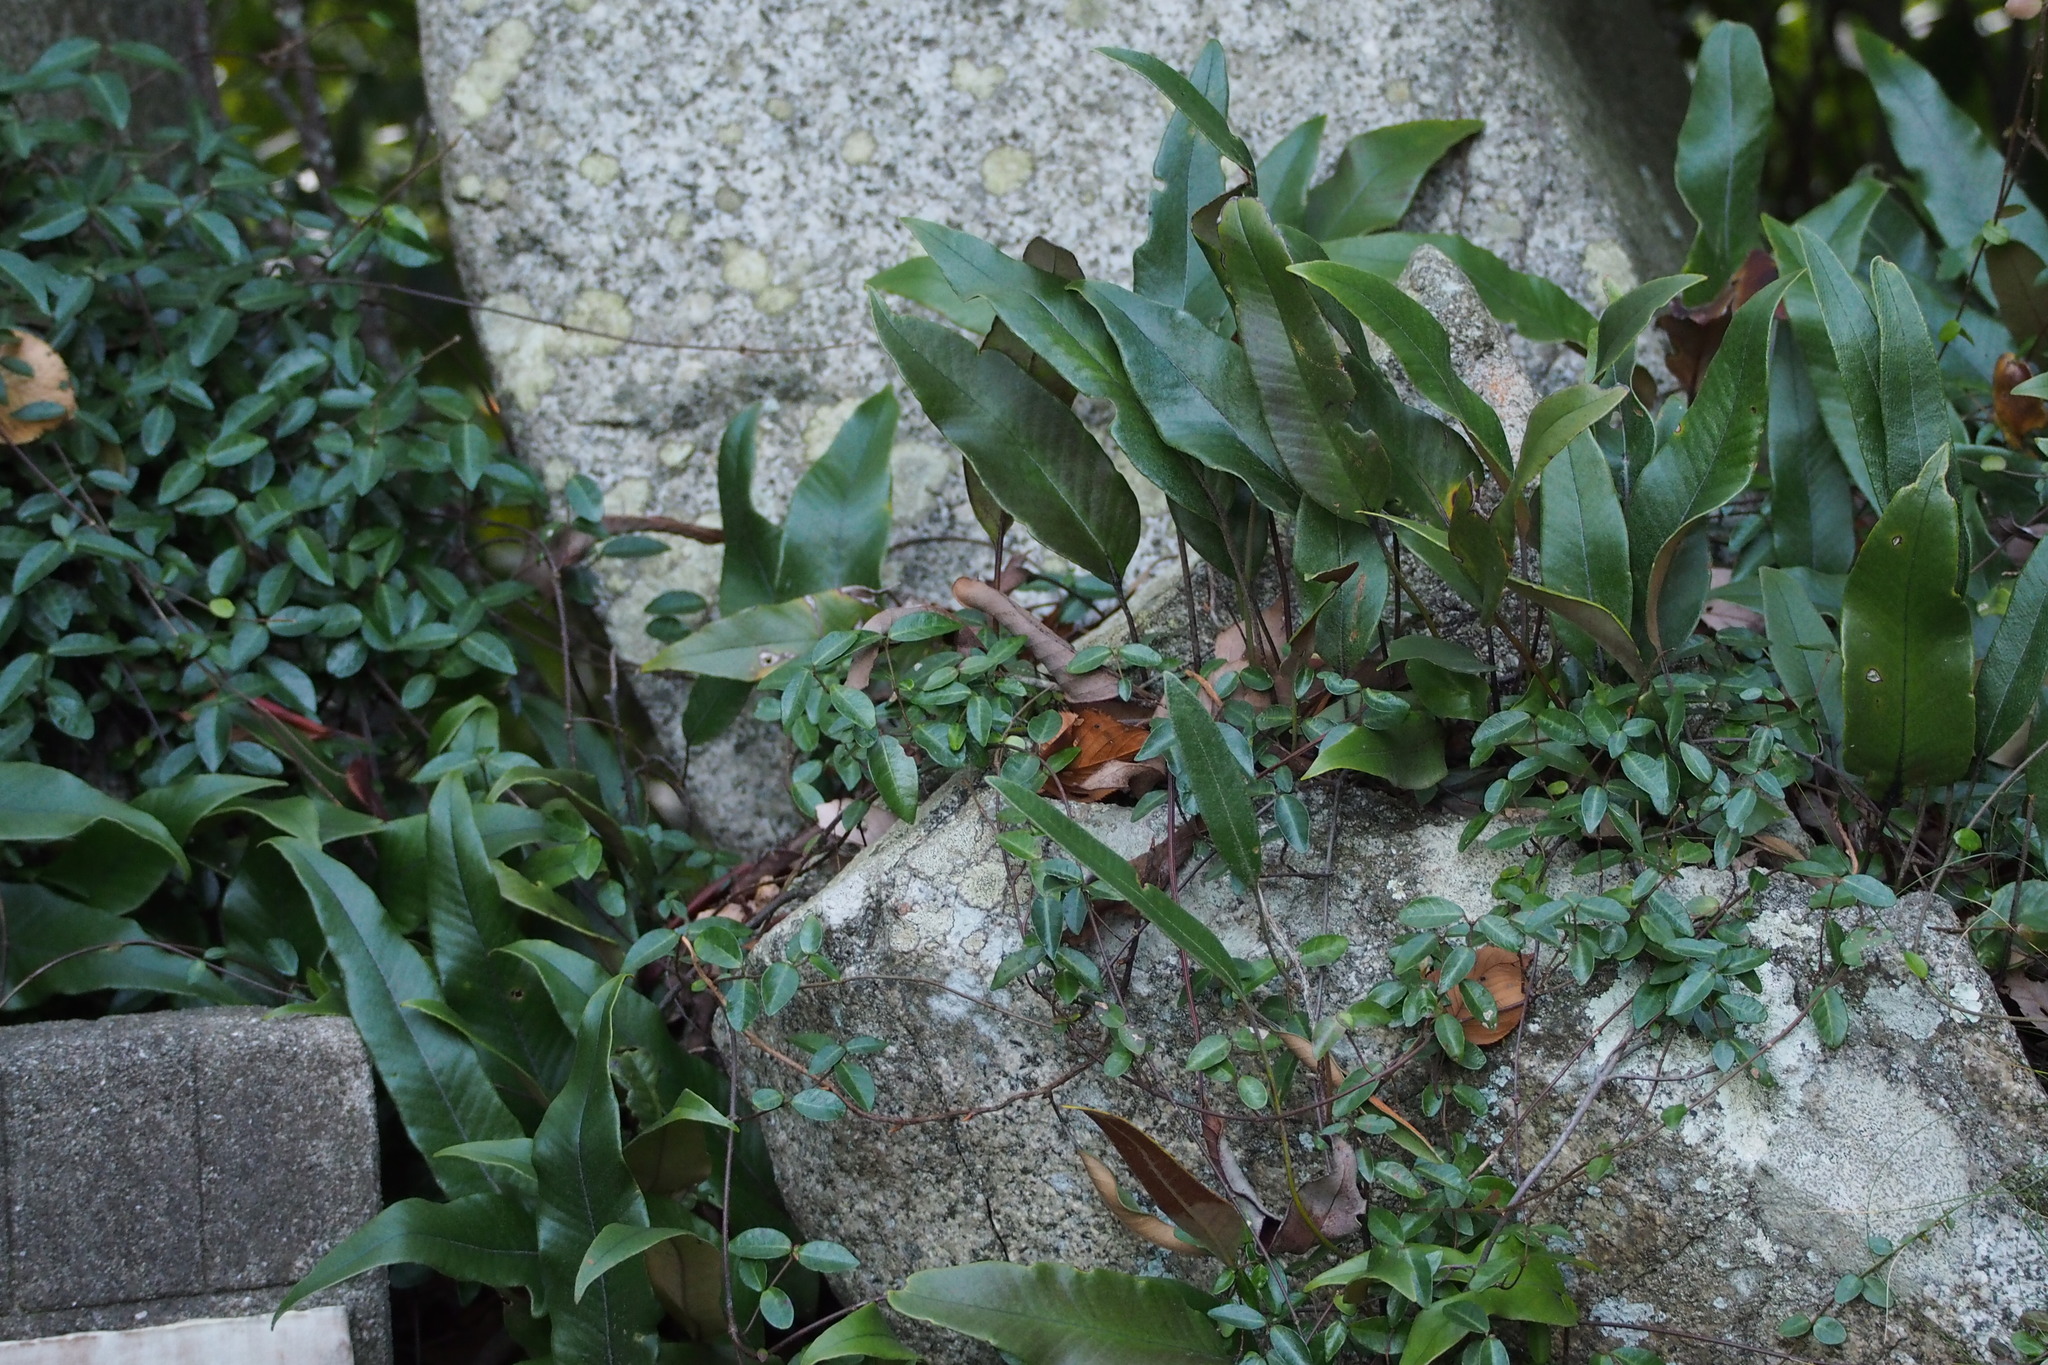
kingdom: Plantae
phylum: Tracheophyta
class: Polypodiopsida
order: Polypodiales
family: Polypodiaceae
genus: Pyrrosia
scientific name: Pyrrosia lingua
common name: Felt fern
